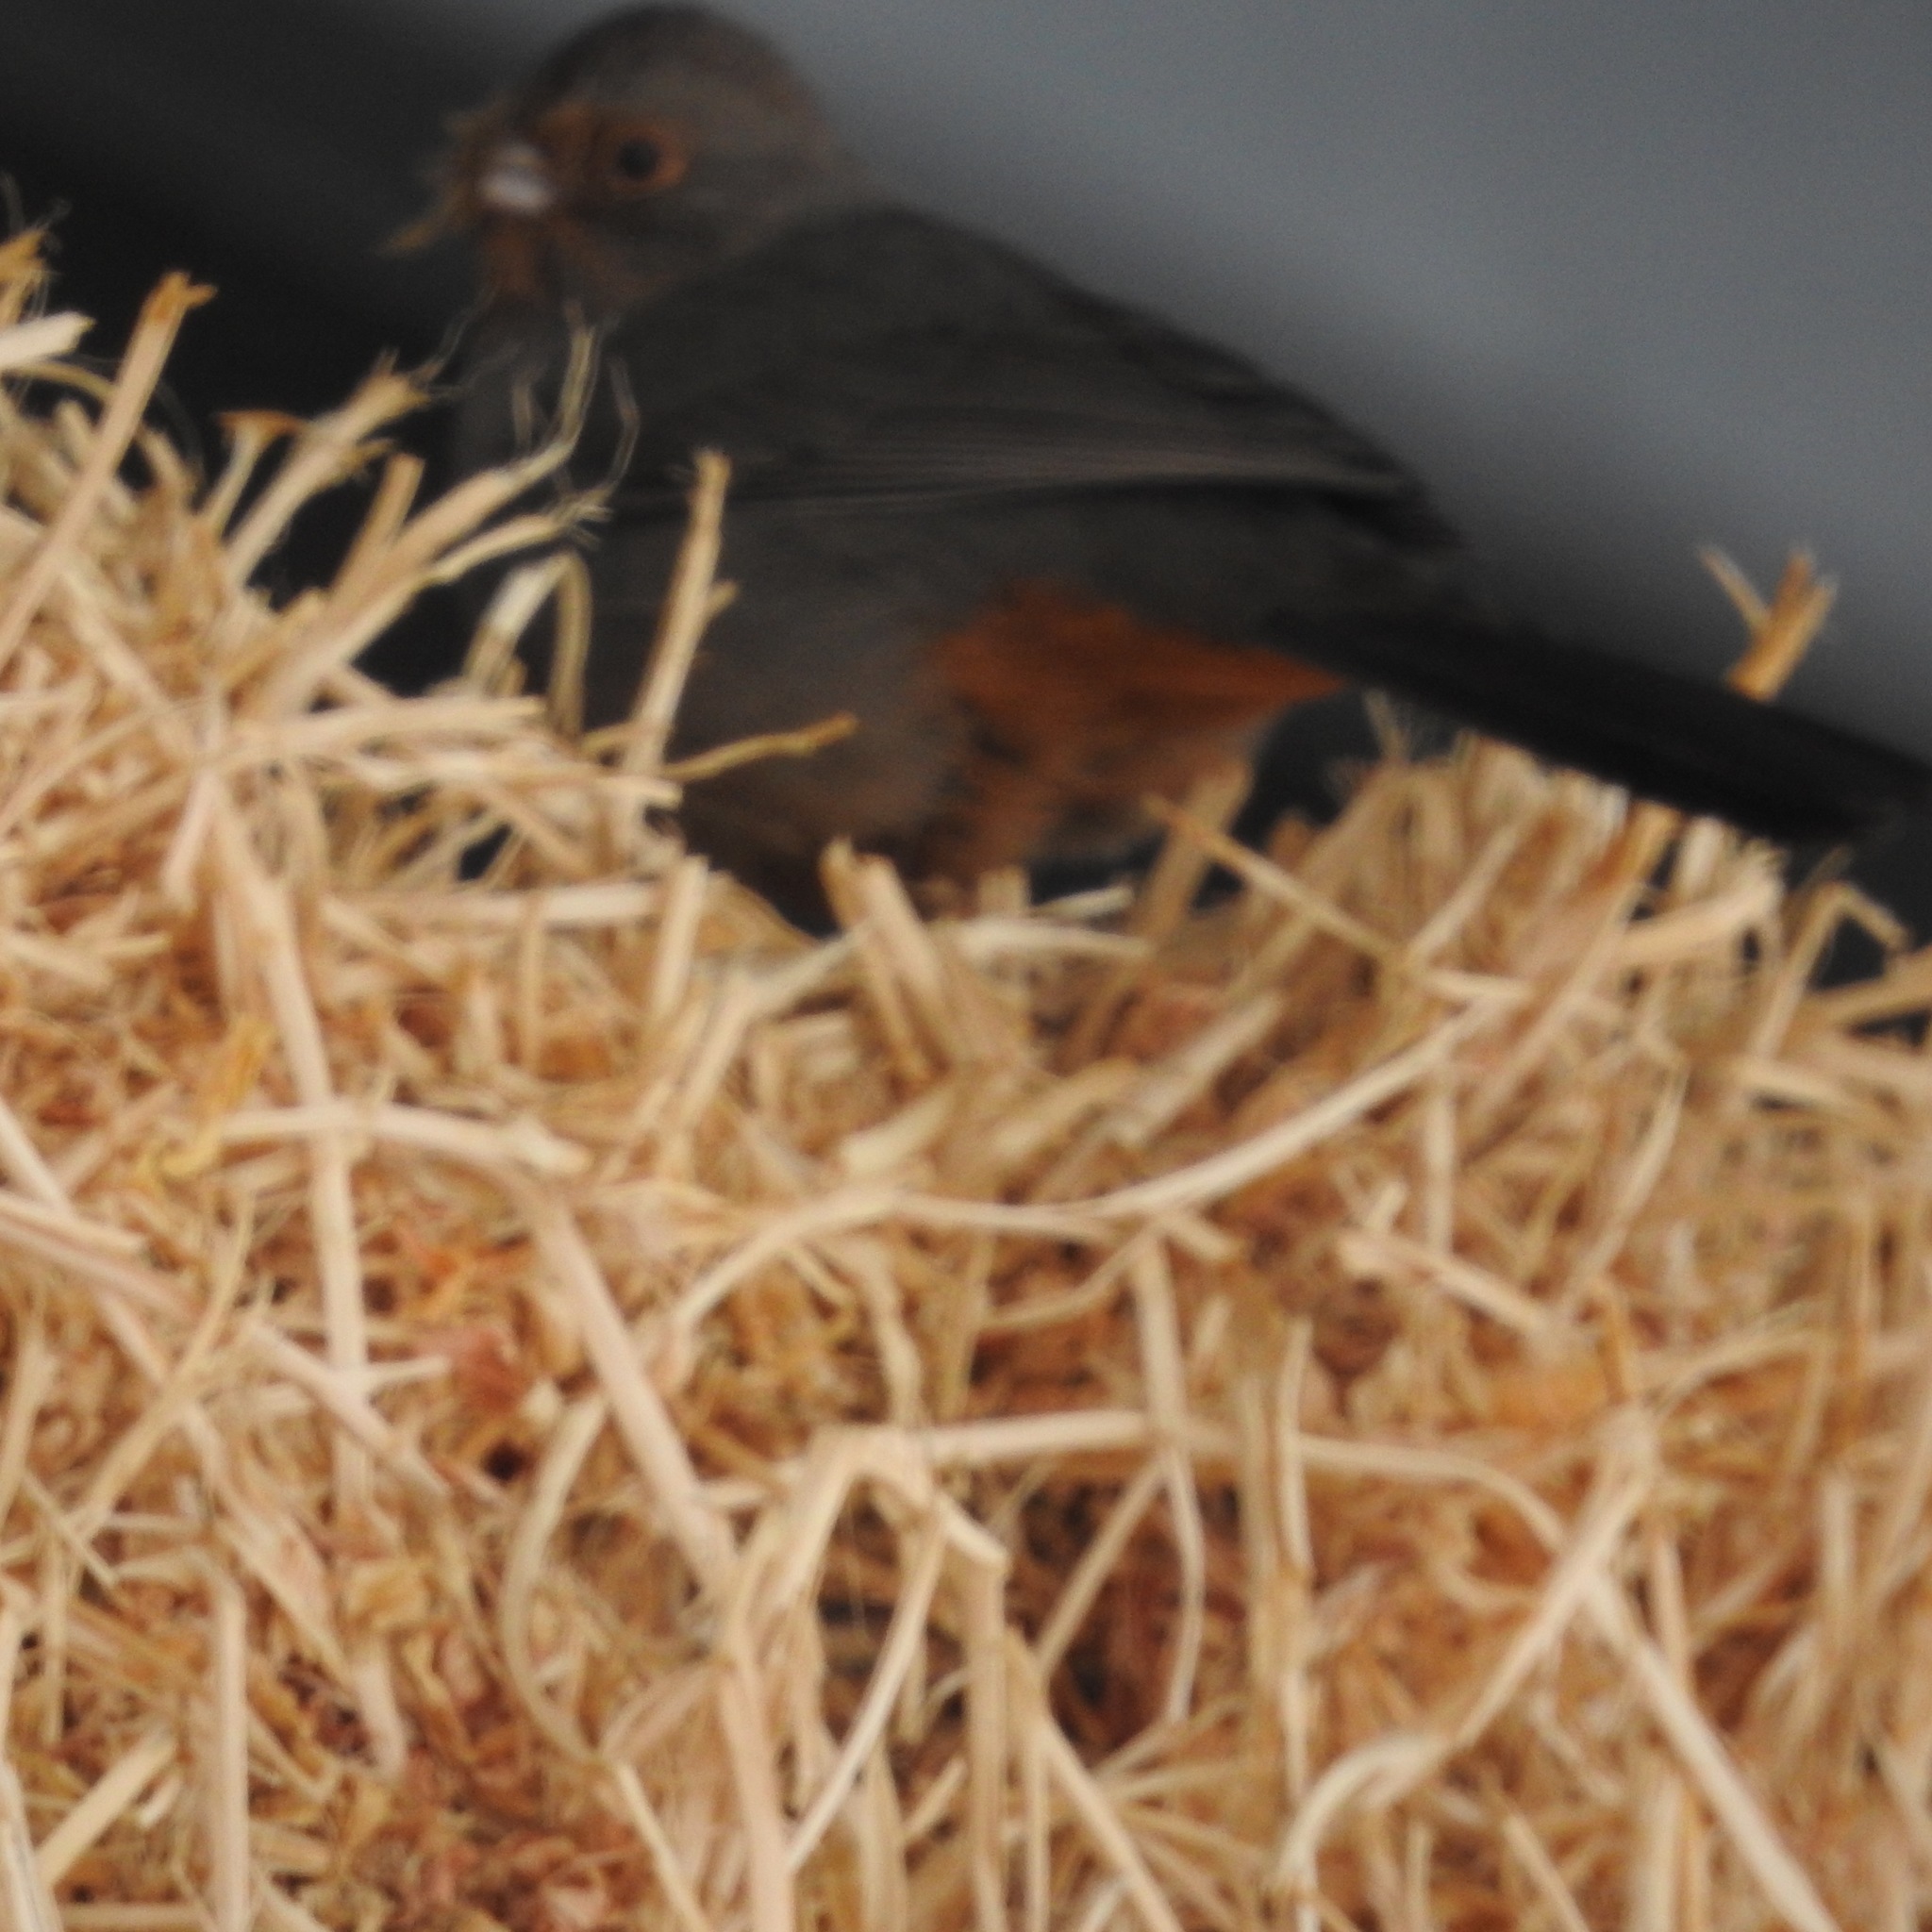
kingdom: Animalia
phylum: Chordata
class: Aves
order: Passeriformes
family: Passerellidae
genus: Melozone
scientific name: Melozone crissalis
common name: California towhee
